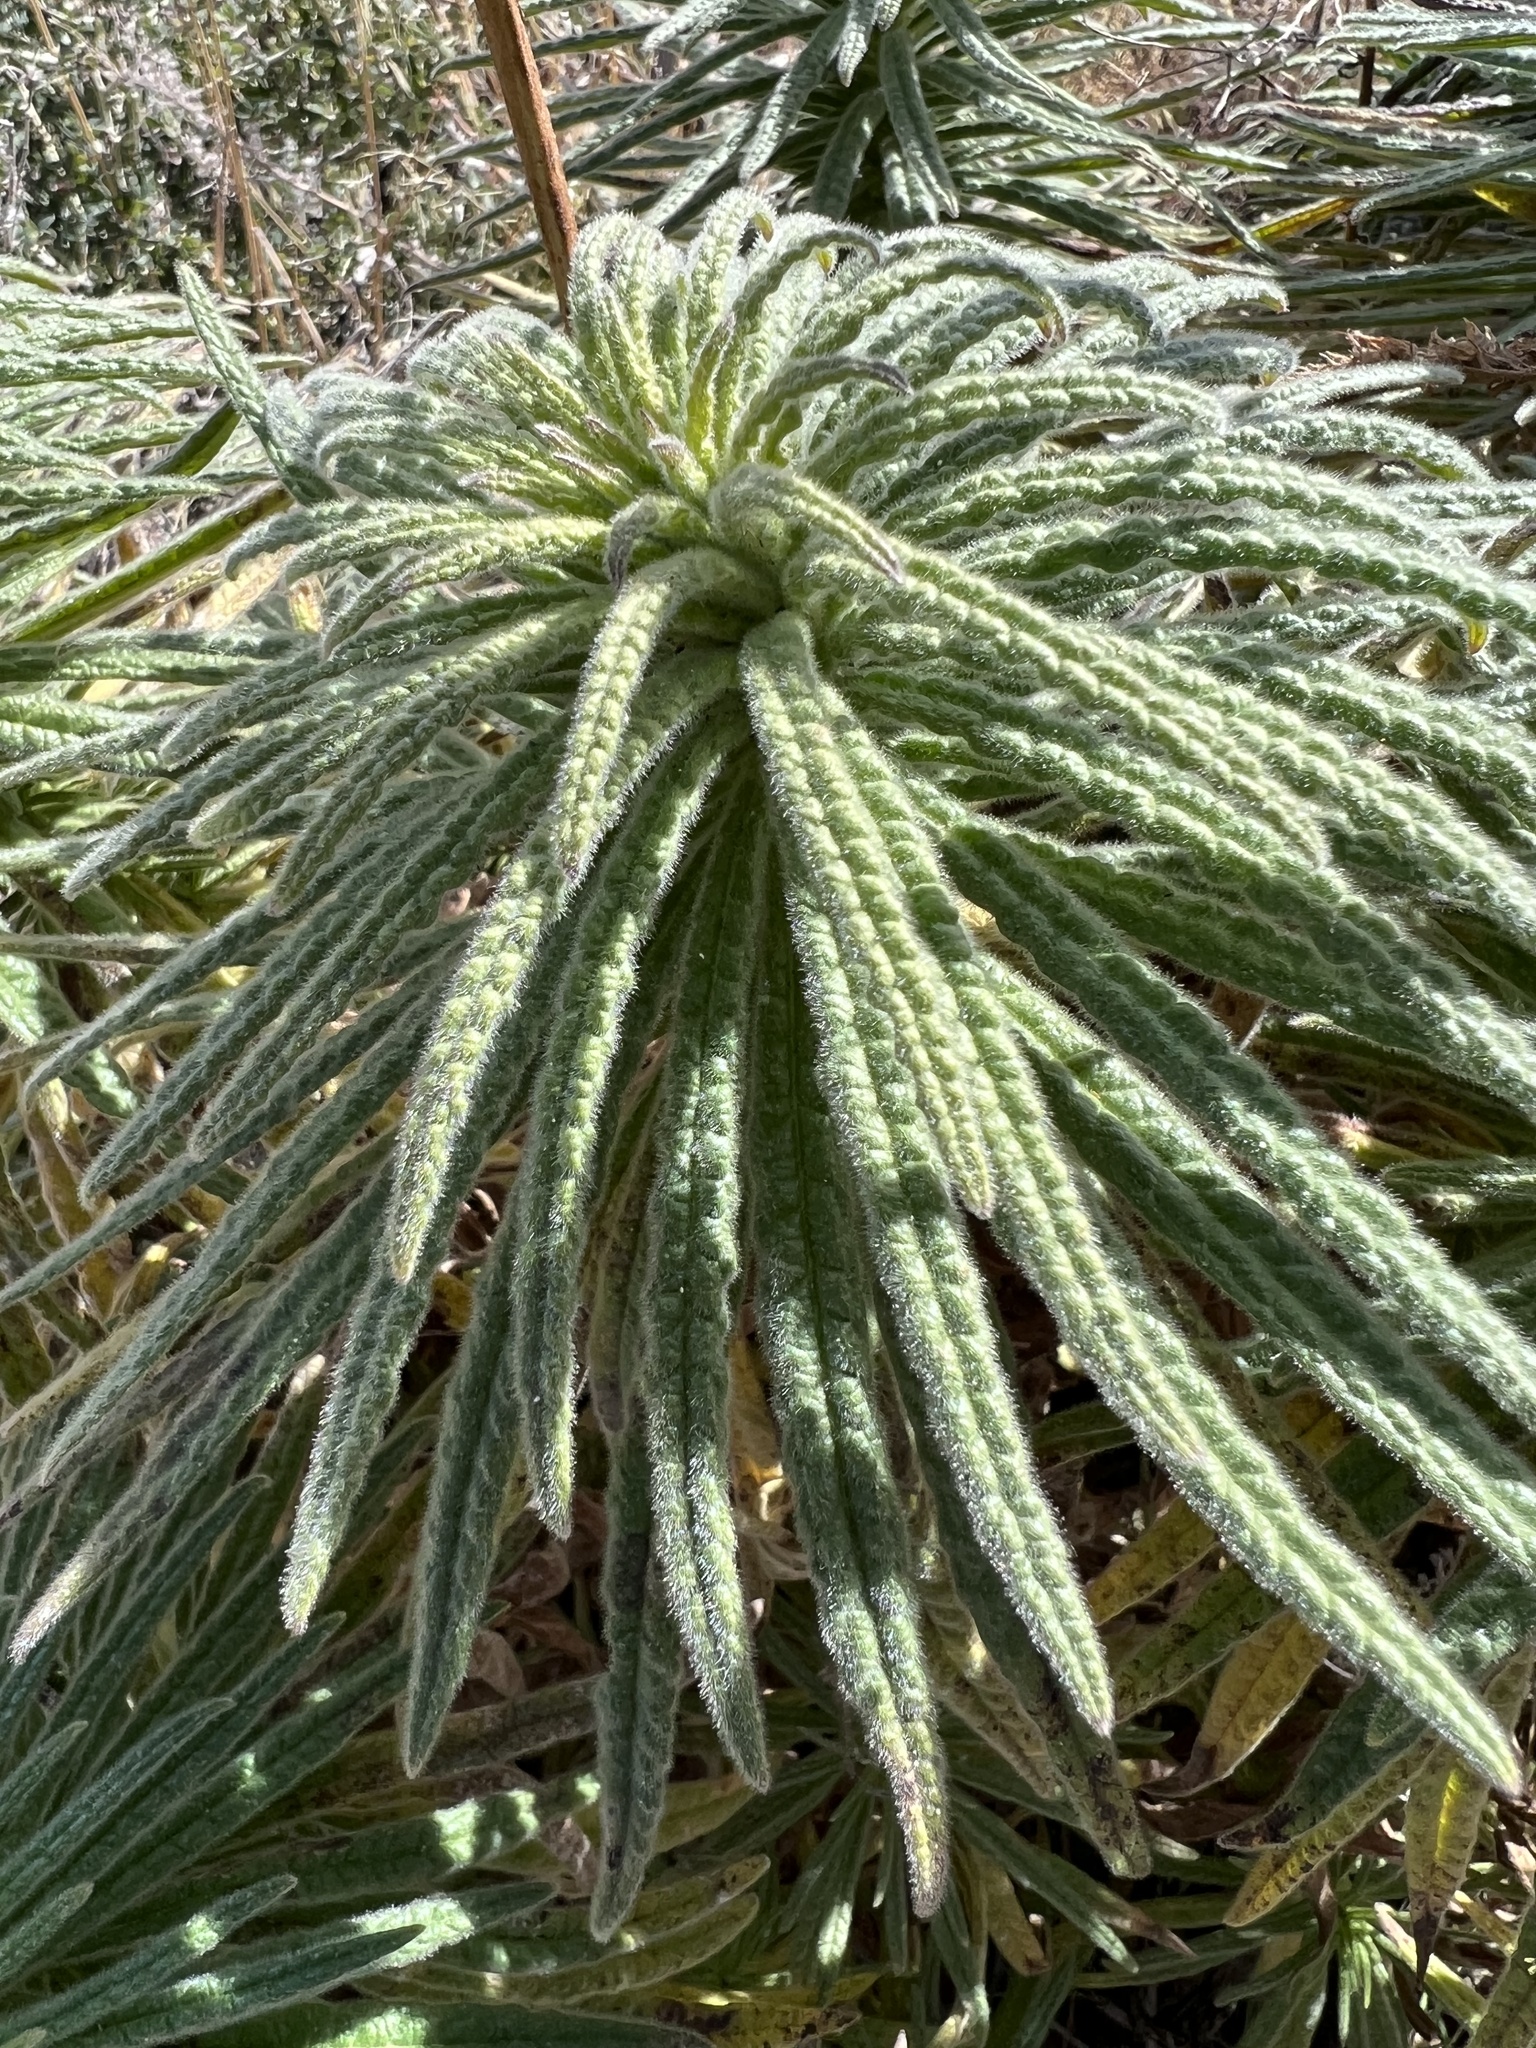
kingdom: Plantae
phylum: Tracheophyta
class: Magnoliopsida
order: Boraginales
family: Namaceae
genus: Turricula
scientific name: Turricula parryi
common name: Poodle-dog-bush
